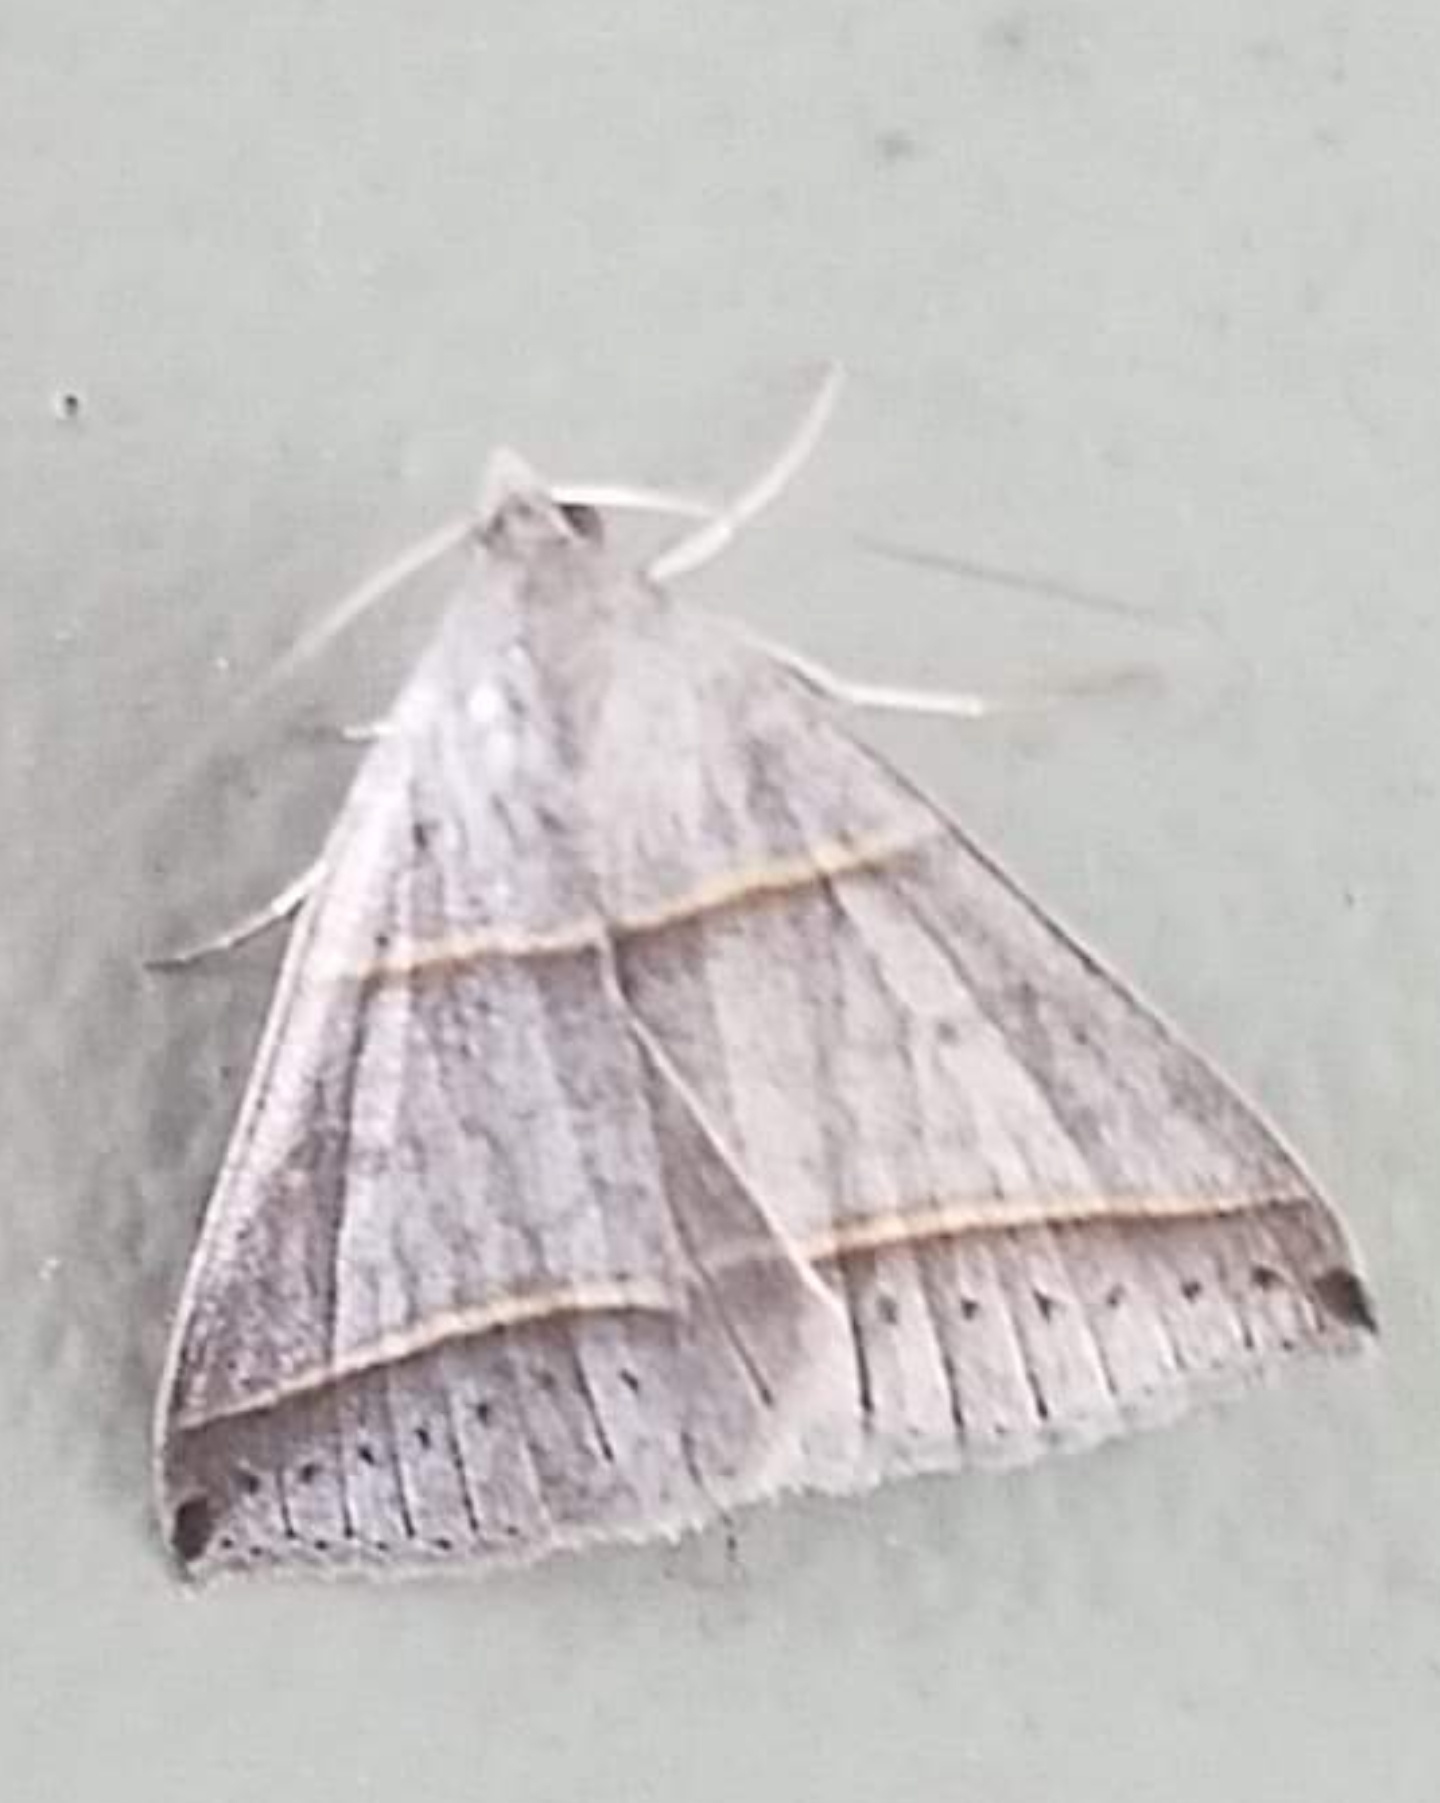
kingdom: Animalia
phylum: Arthropoda
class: Insecta
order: Lepidoptera
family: Erebidae
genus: Ptichodis
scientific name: Ptichodis vinculum
